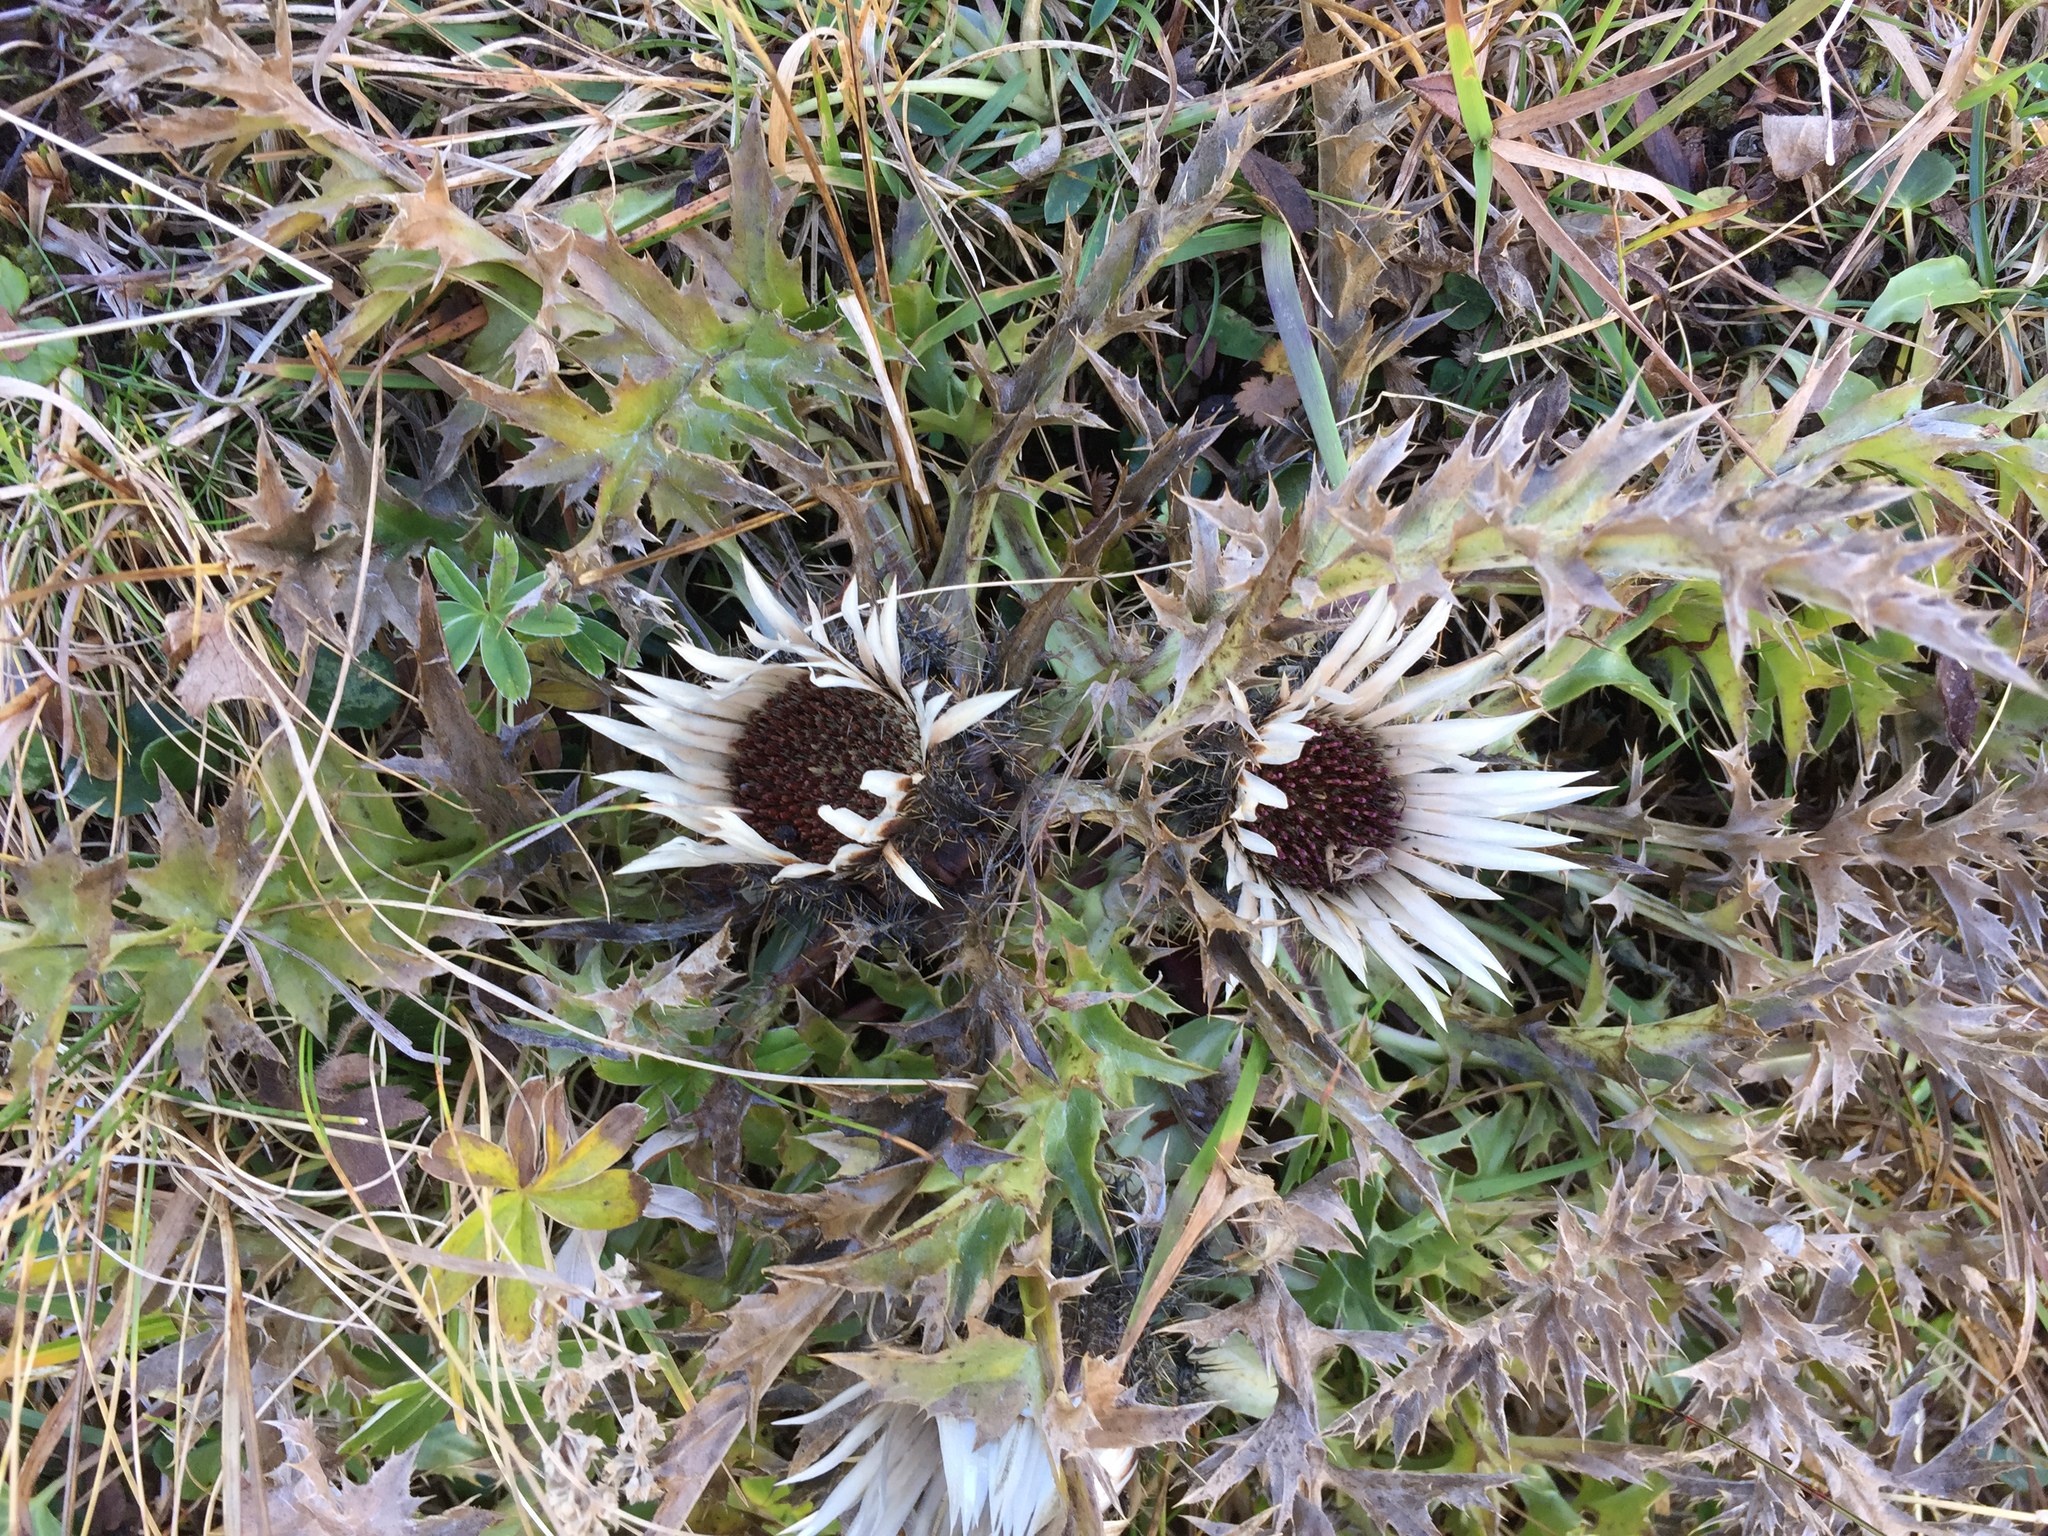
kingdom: Plantae
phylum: Tracheophyta
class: Magnoliopsida
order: Asterales
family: Asteraceae
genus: Carlina
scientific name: Carlina acaulis
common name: Stemless carline thistle
